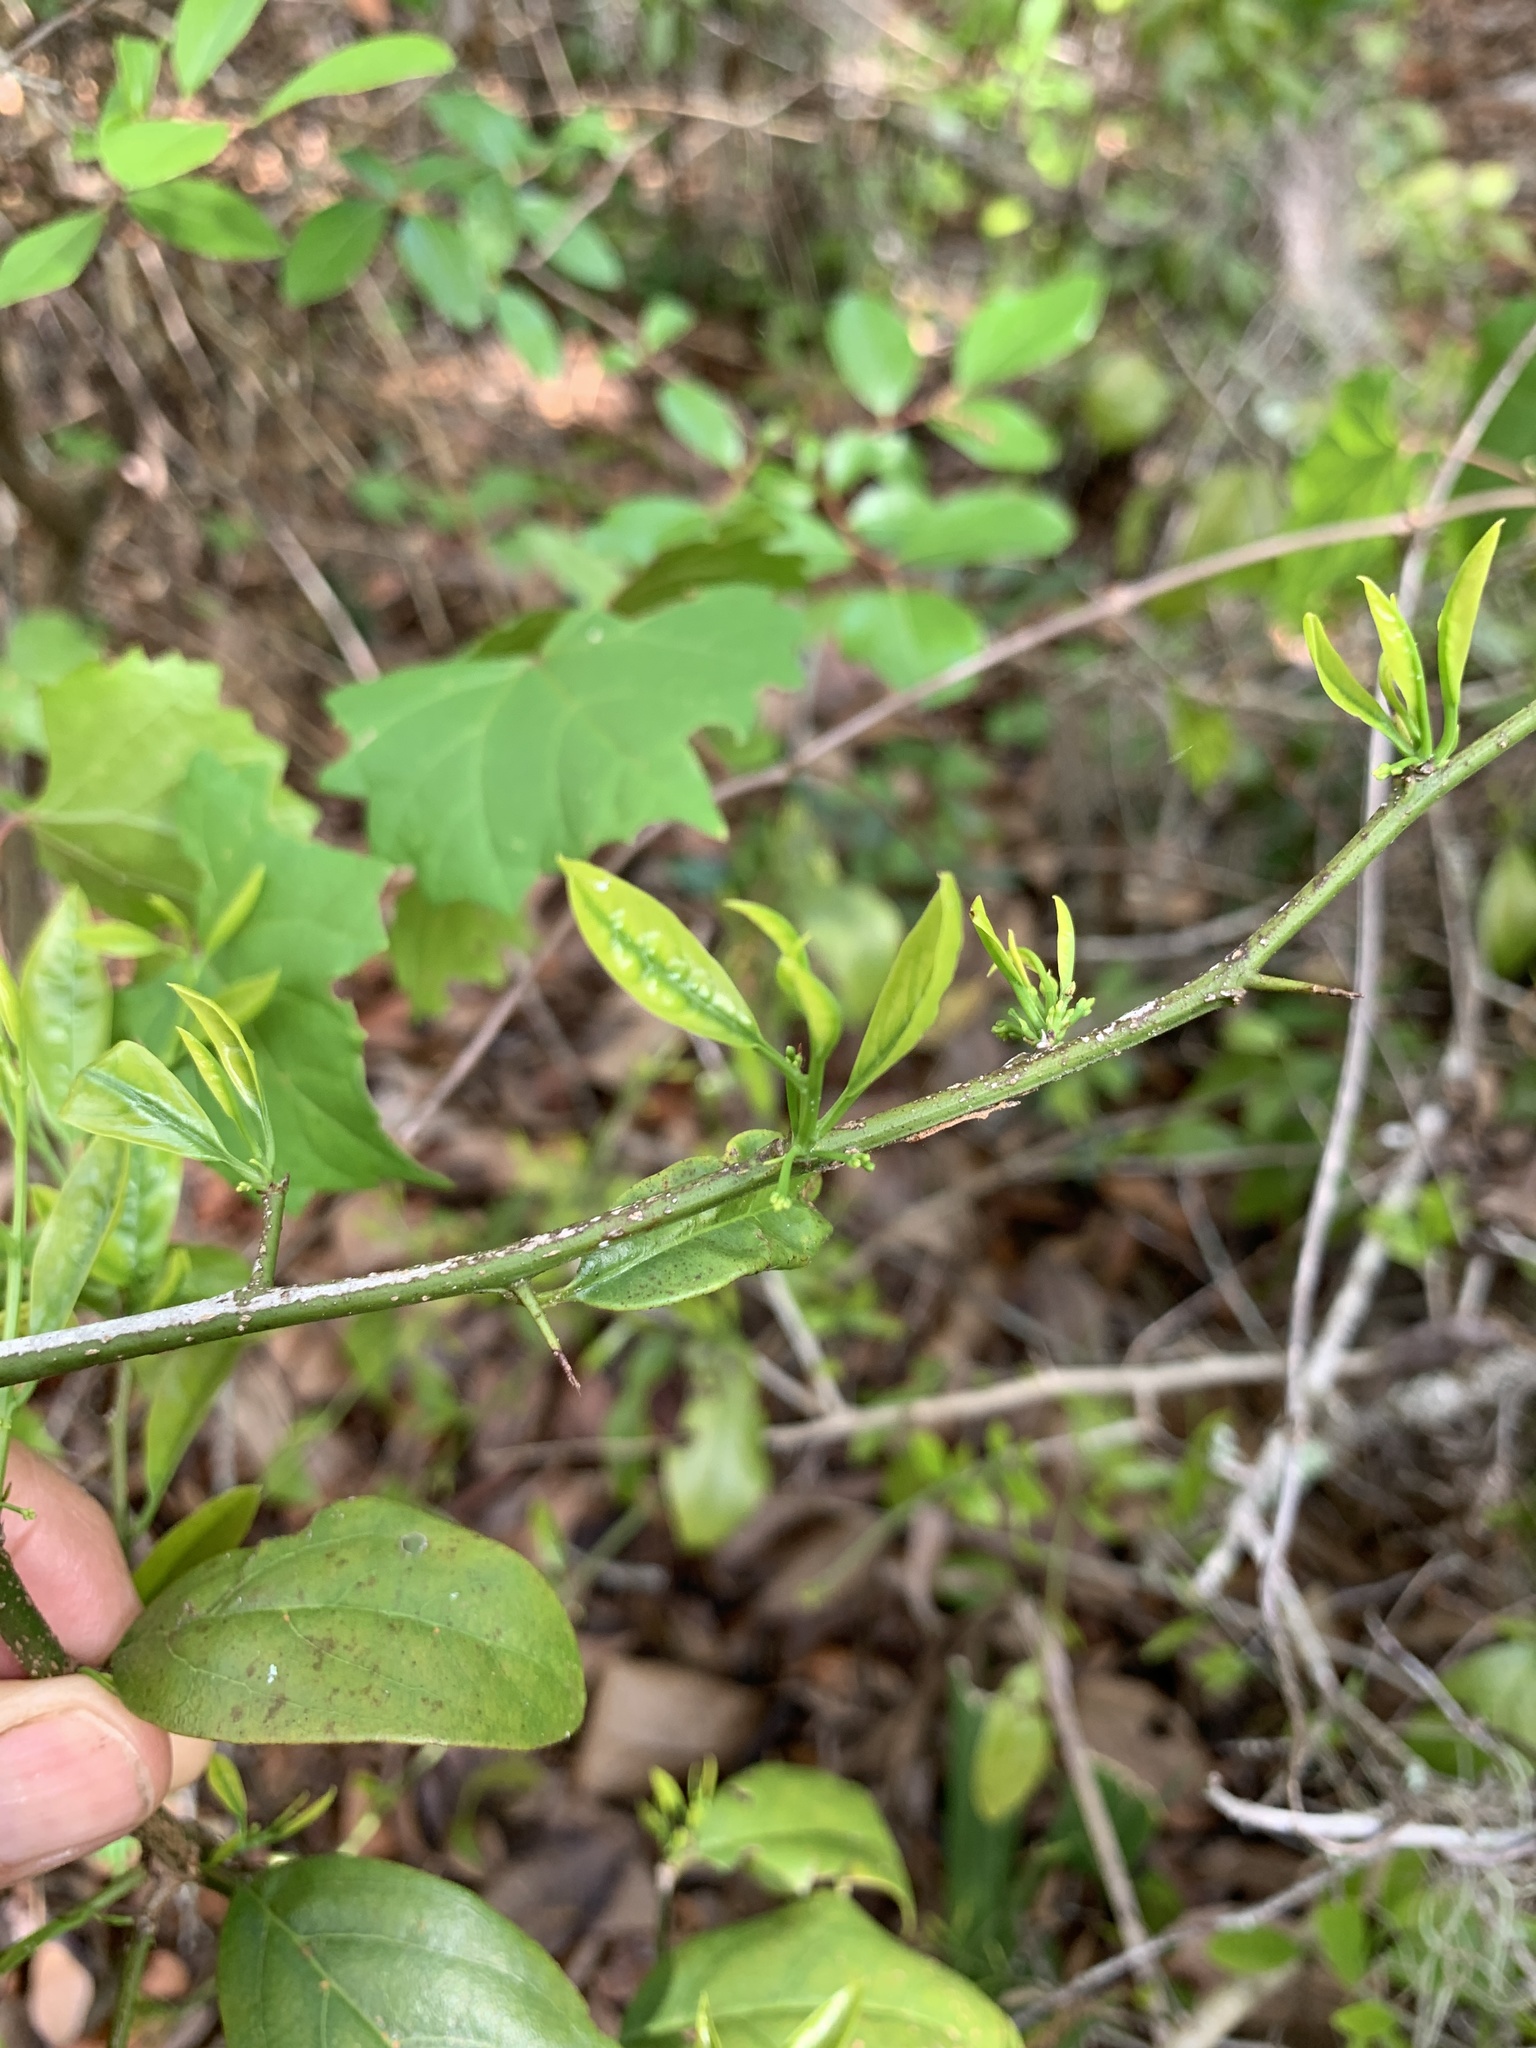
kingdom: Plantae
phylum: Tracheophyta
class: Magnoliopsida
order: Sapindales
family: Rutaceae
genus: Citrus
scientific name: Citrus aurantium
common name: Sour orange
